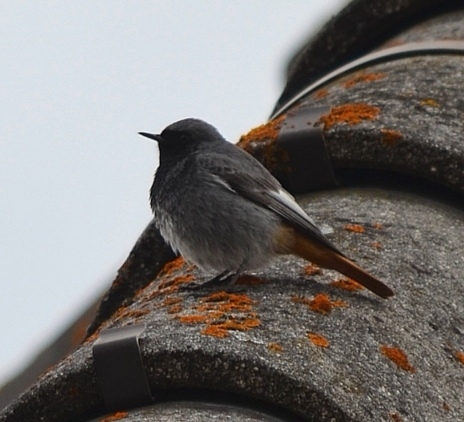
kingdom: Animalia
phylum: Chordata
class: Aves
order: Passeriformes
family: Muscicapidae
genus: Phoenicurus
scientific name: Phoenicurus ochruros
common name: Black redstart
